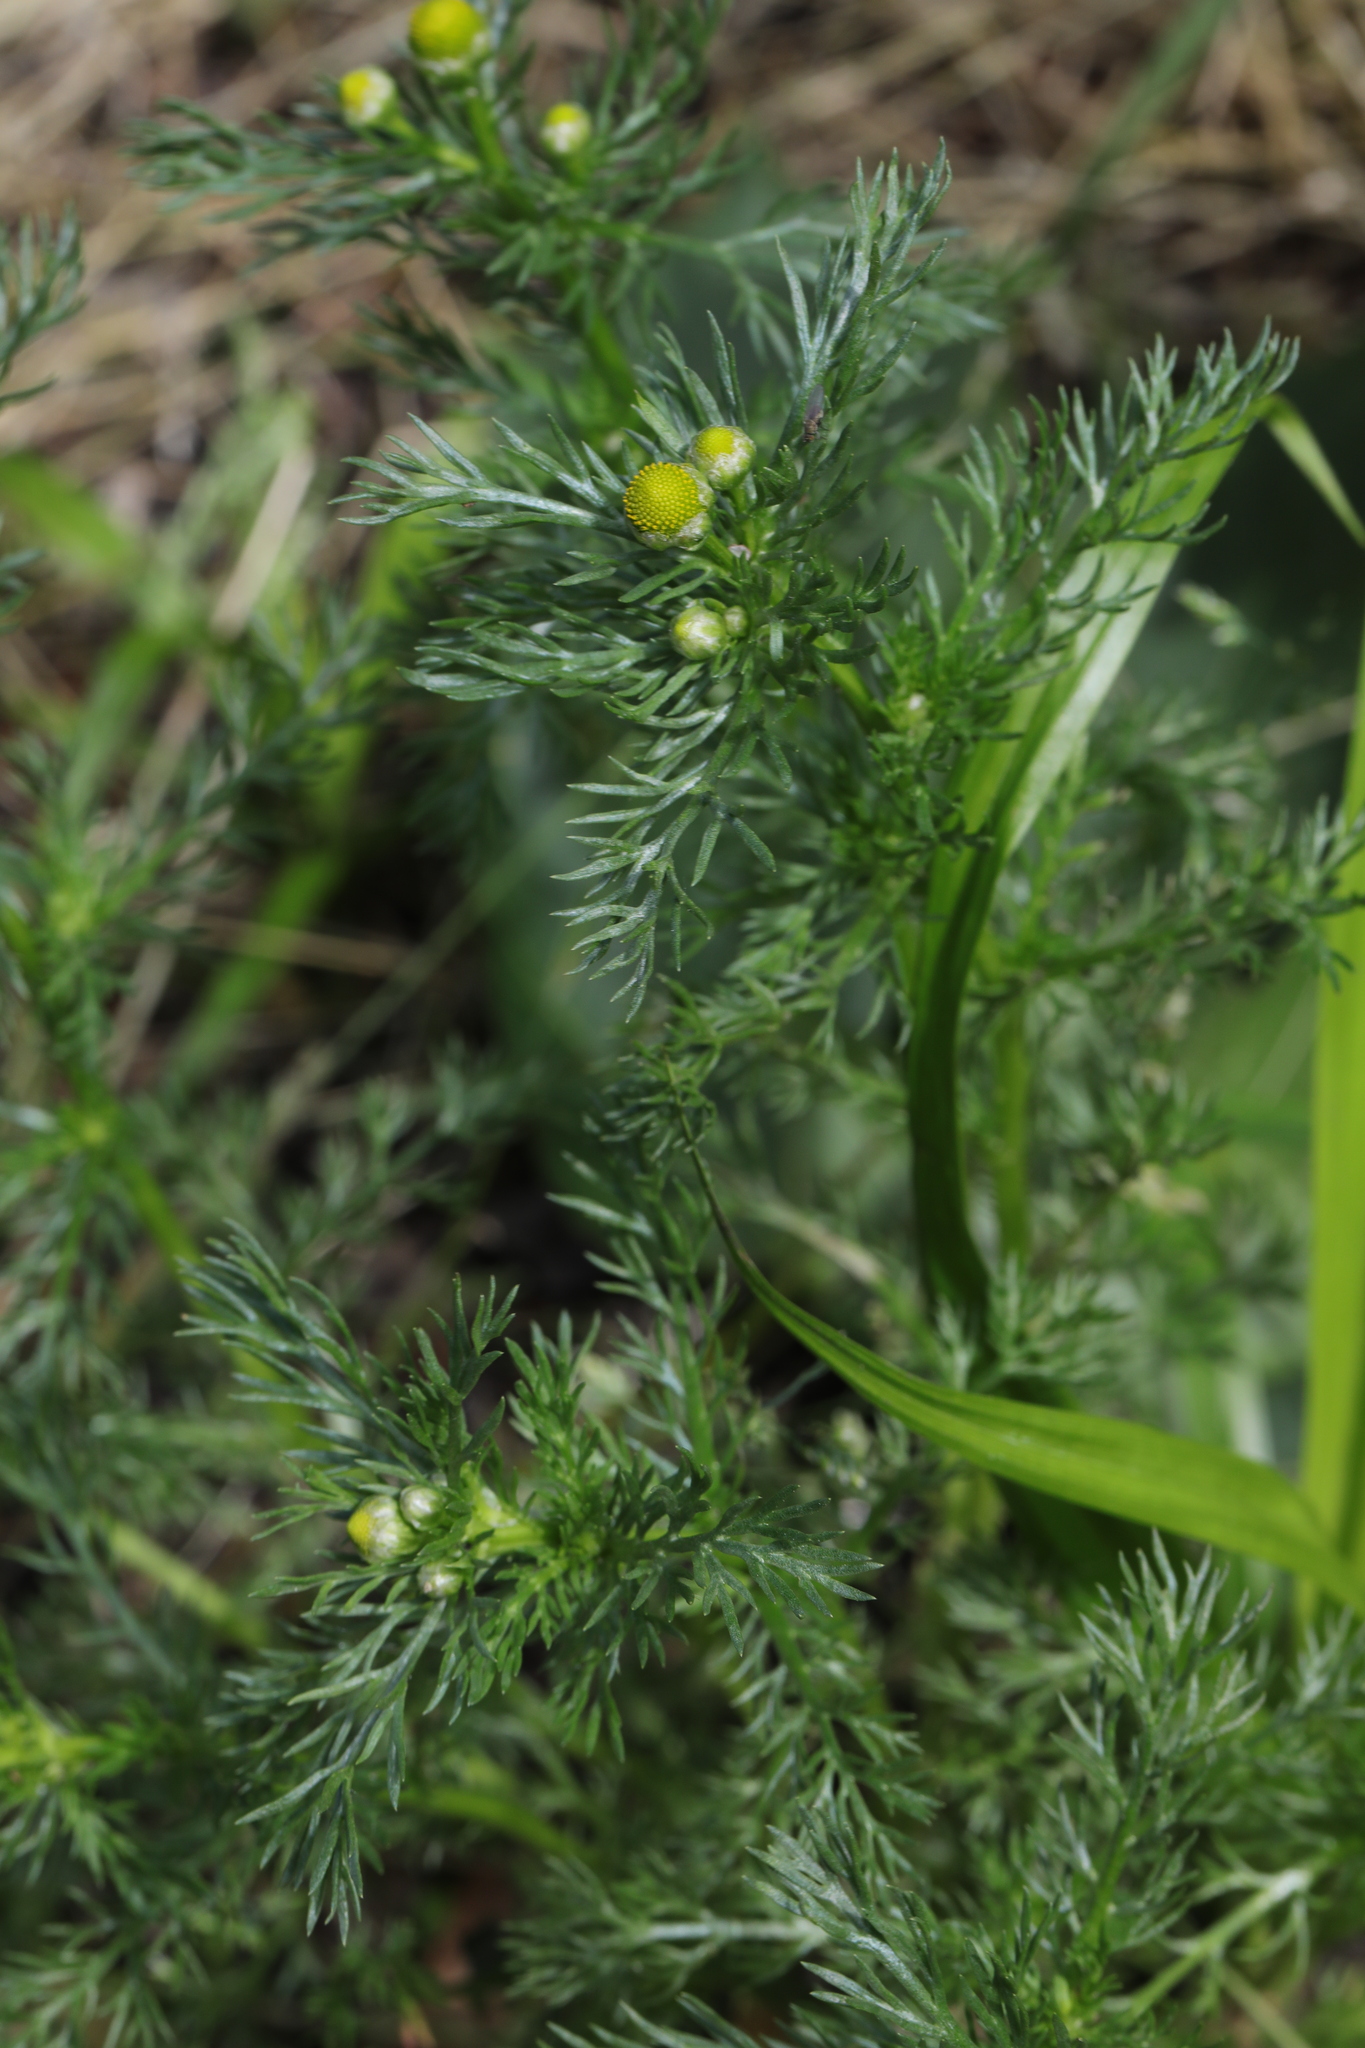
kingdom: Plantae
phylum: Tracheophyta
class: Magnoliopsida
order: Asterales
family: Asteraceae
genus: Matricaria
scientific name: Matricaria discoidea
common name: Disc mayweed
